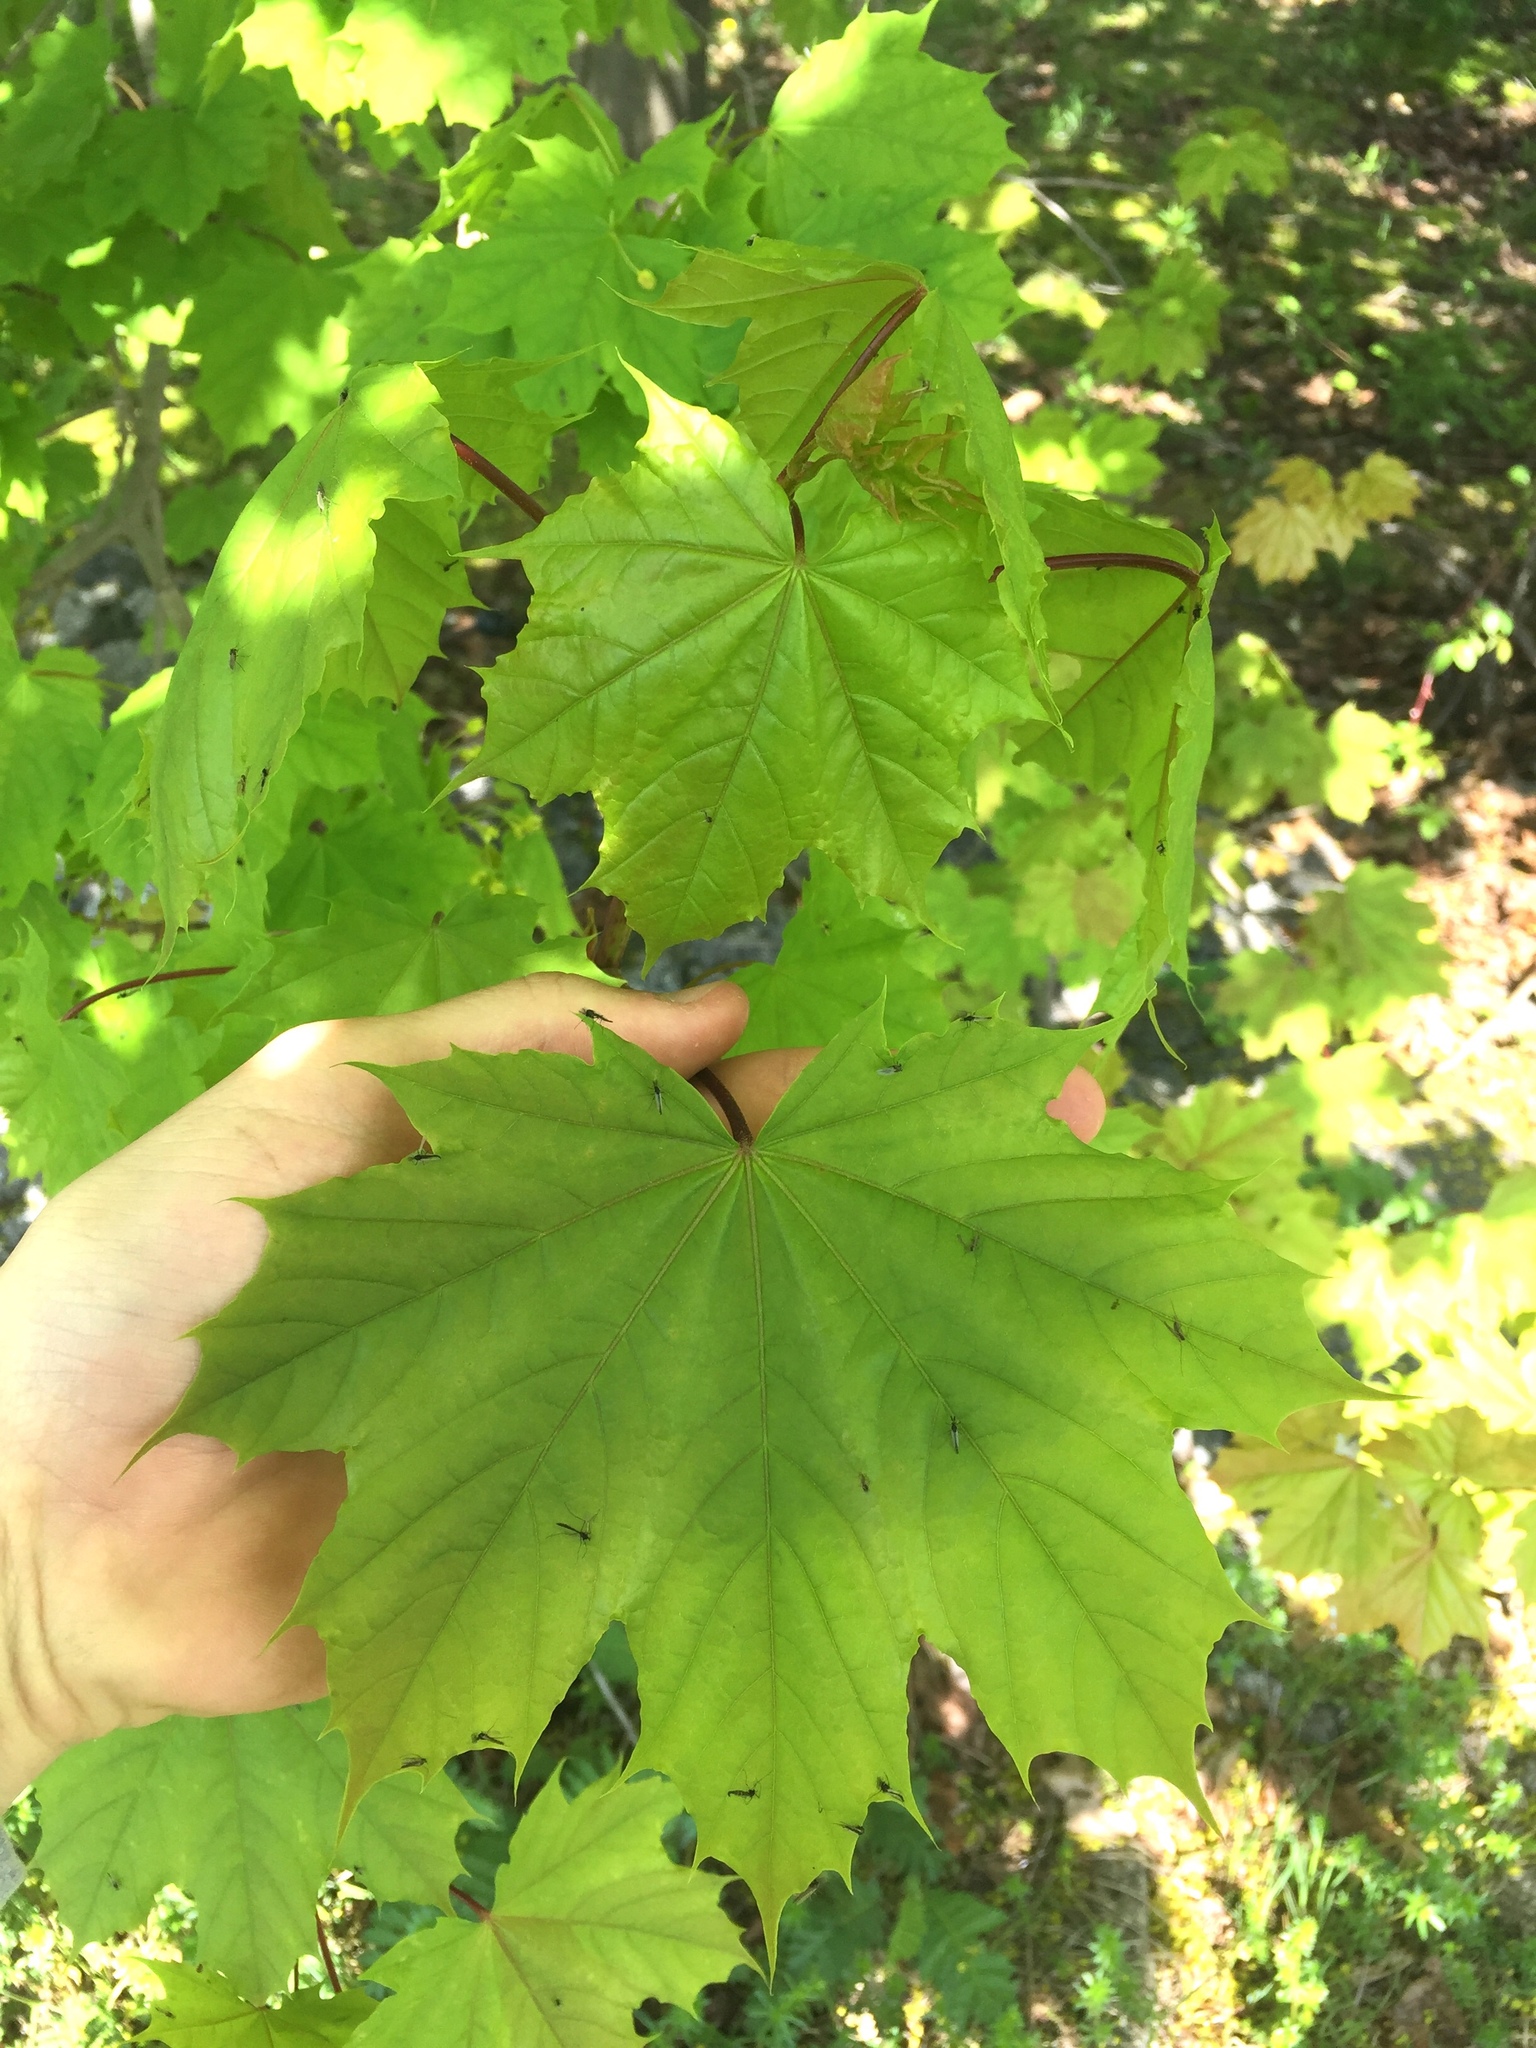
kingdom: Plantae
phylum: Tracheophyta
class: Magnoliopsida
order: Sapindales
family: Sapindaceae
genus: Acer
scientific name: Acer platanoides
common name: Norway maple
